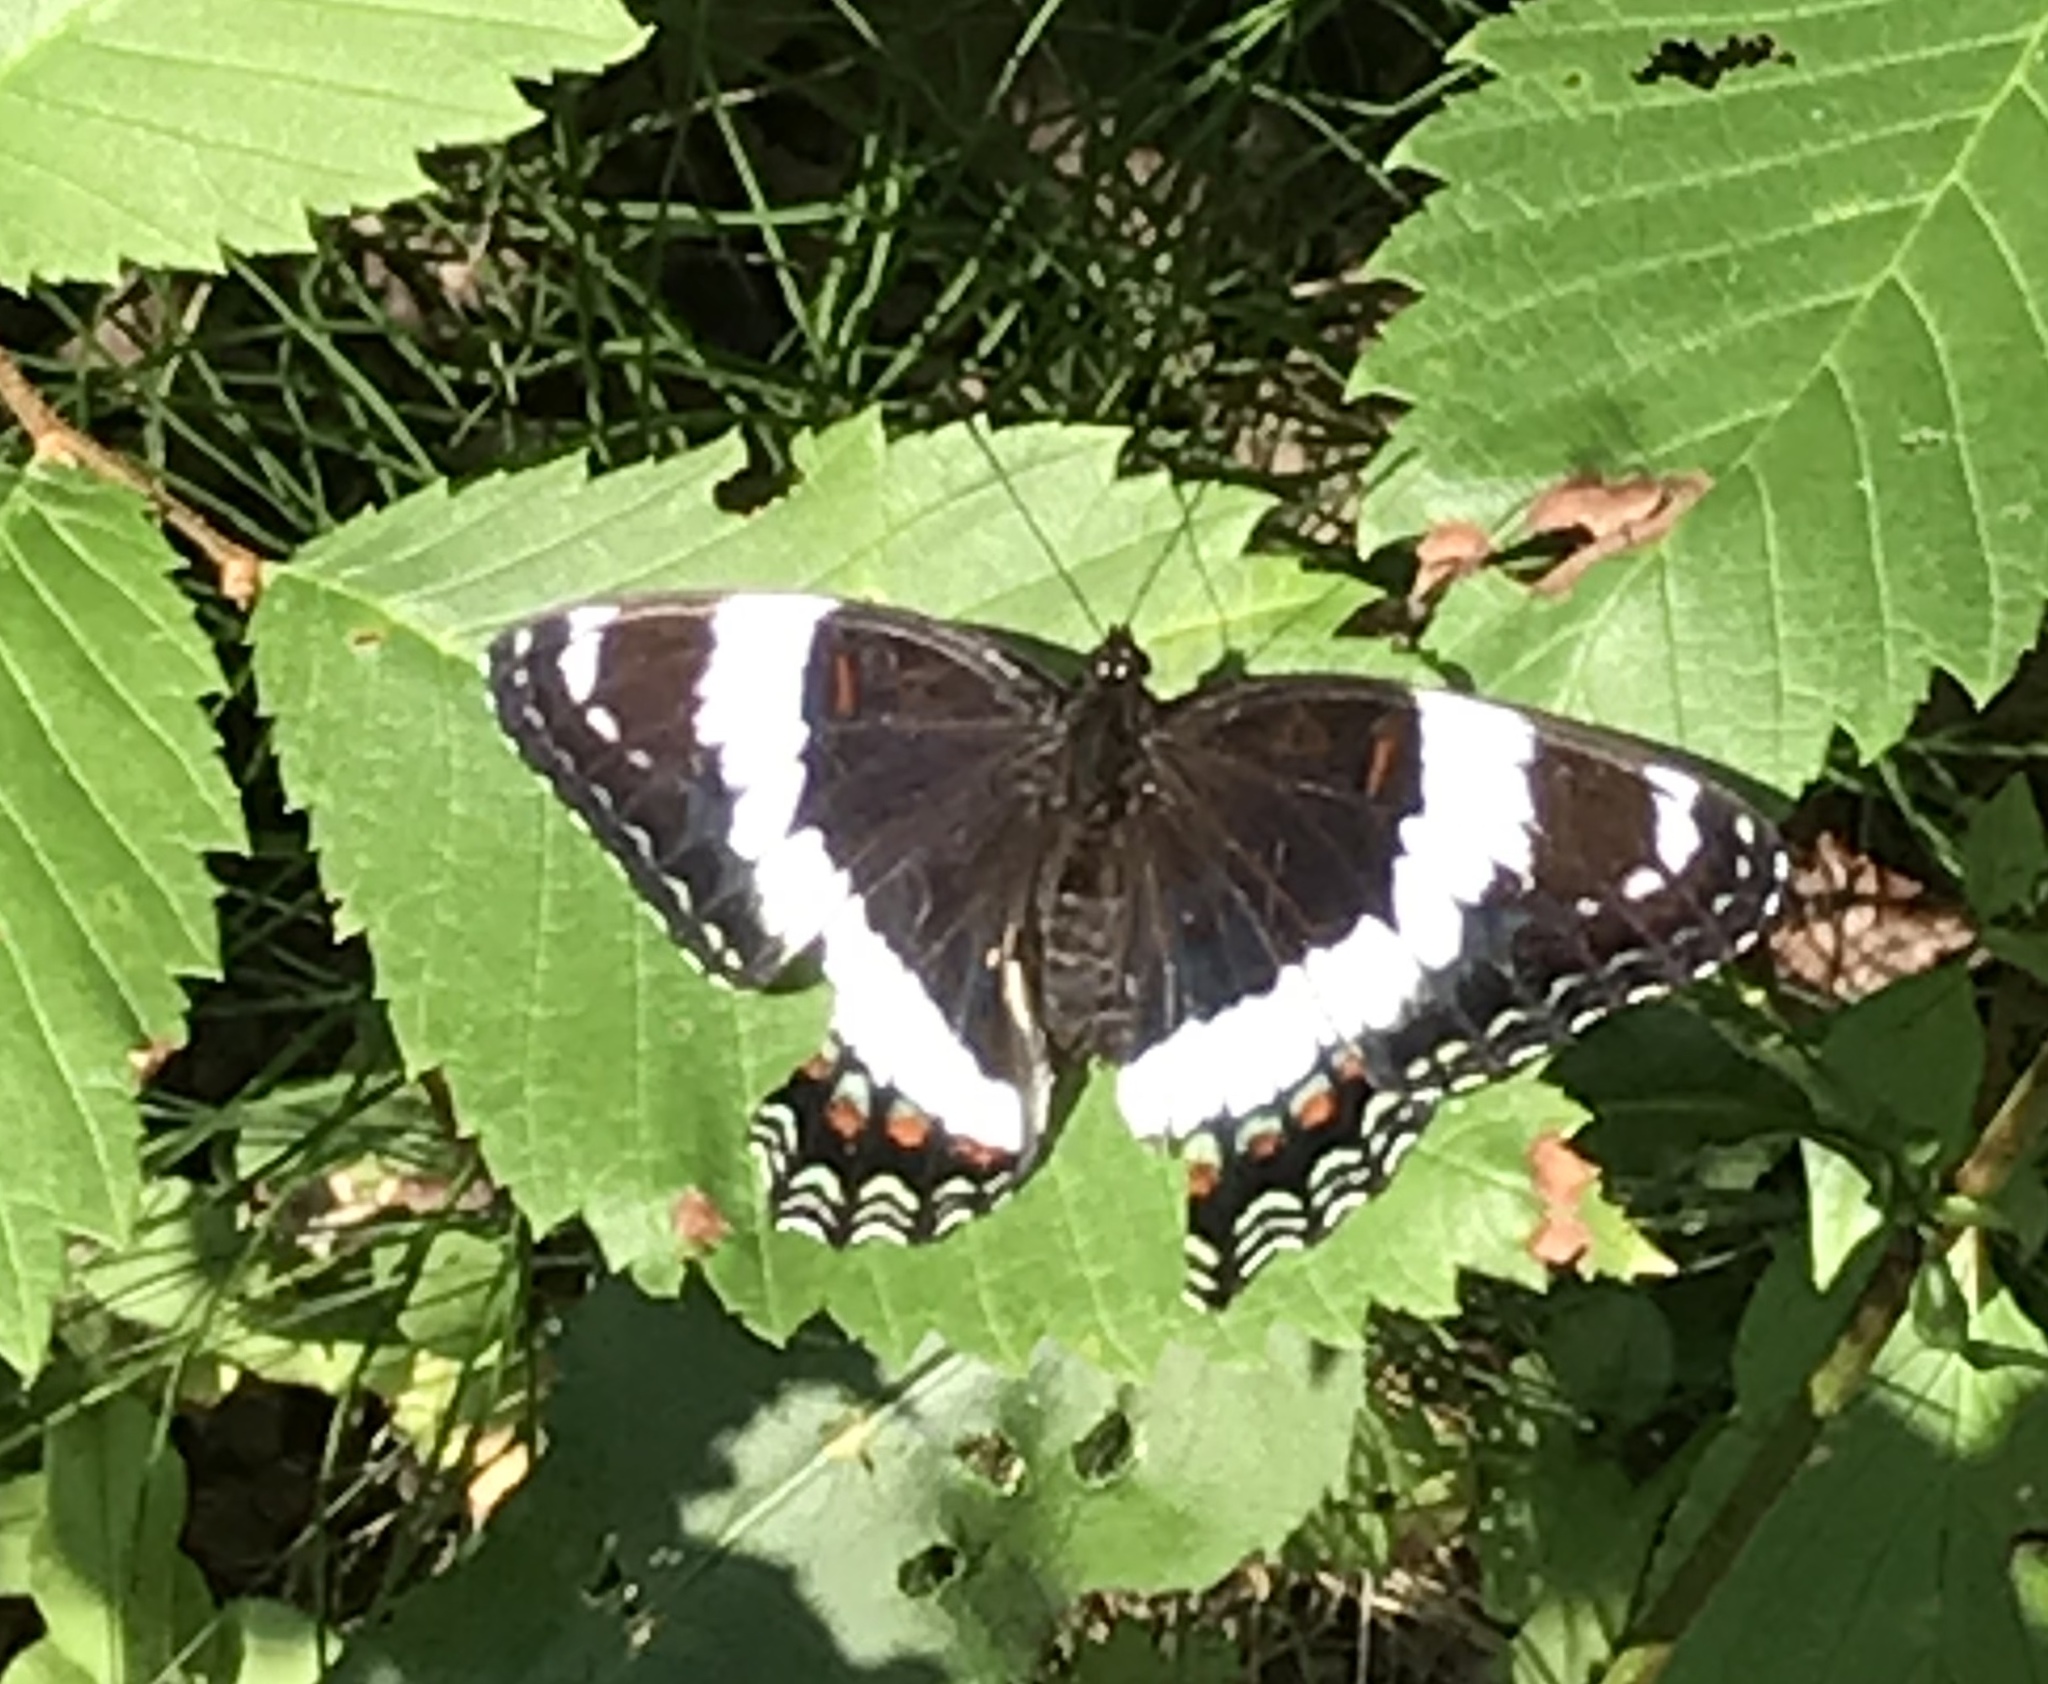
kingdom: Animalia
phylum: Arthropoda
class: Insecta
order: Lepidoptera
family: Nymphalidae
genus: Limenitis
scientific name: Limenitis arthemis
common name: Red-spotted admiral
